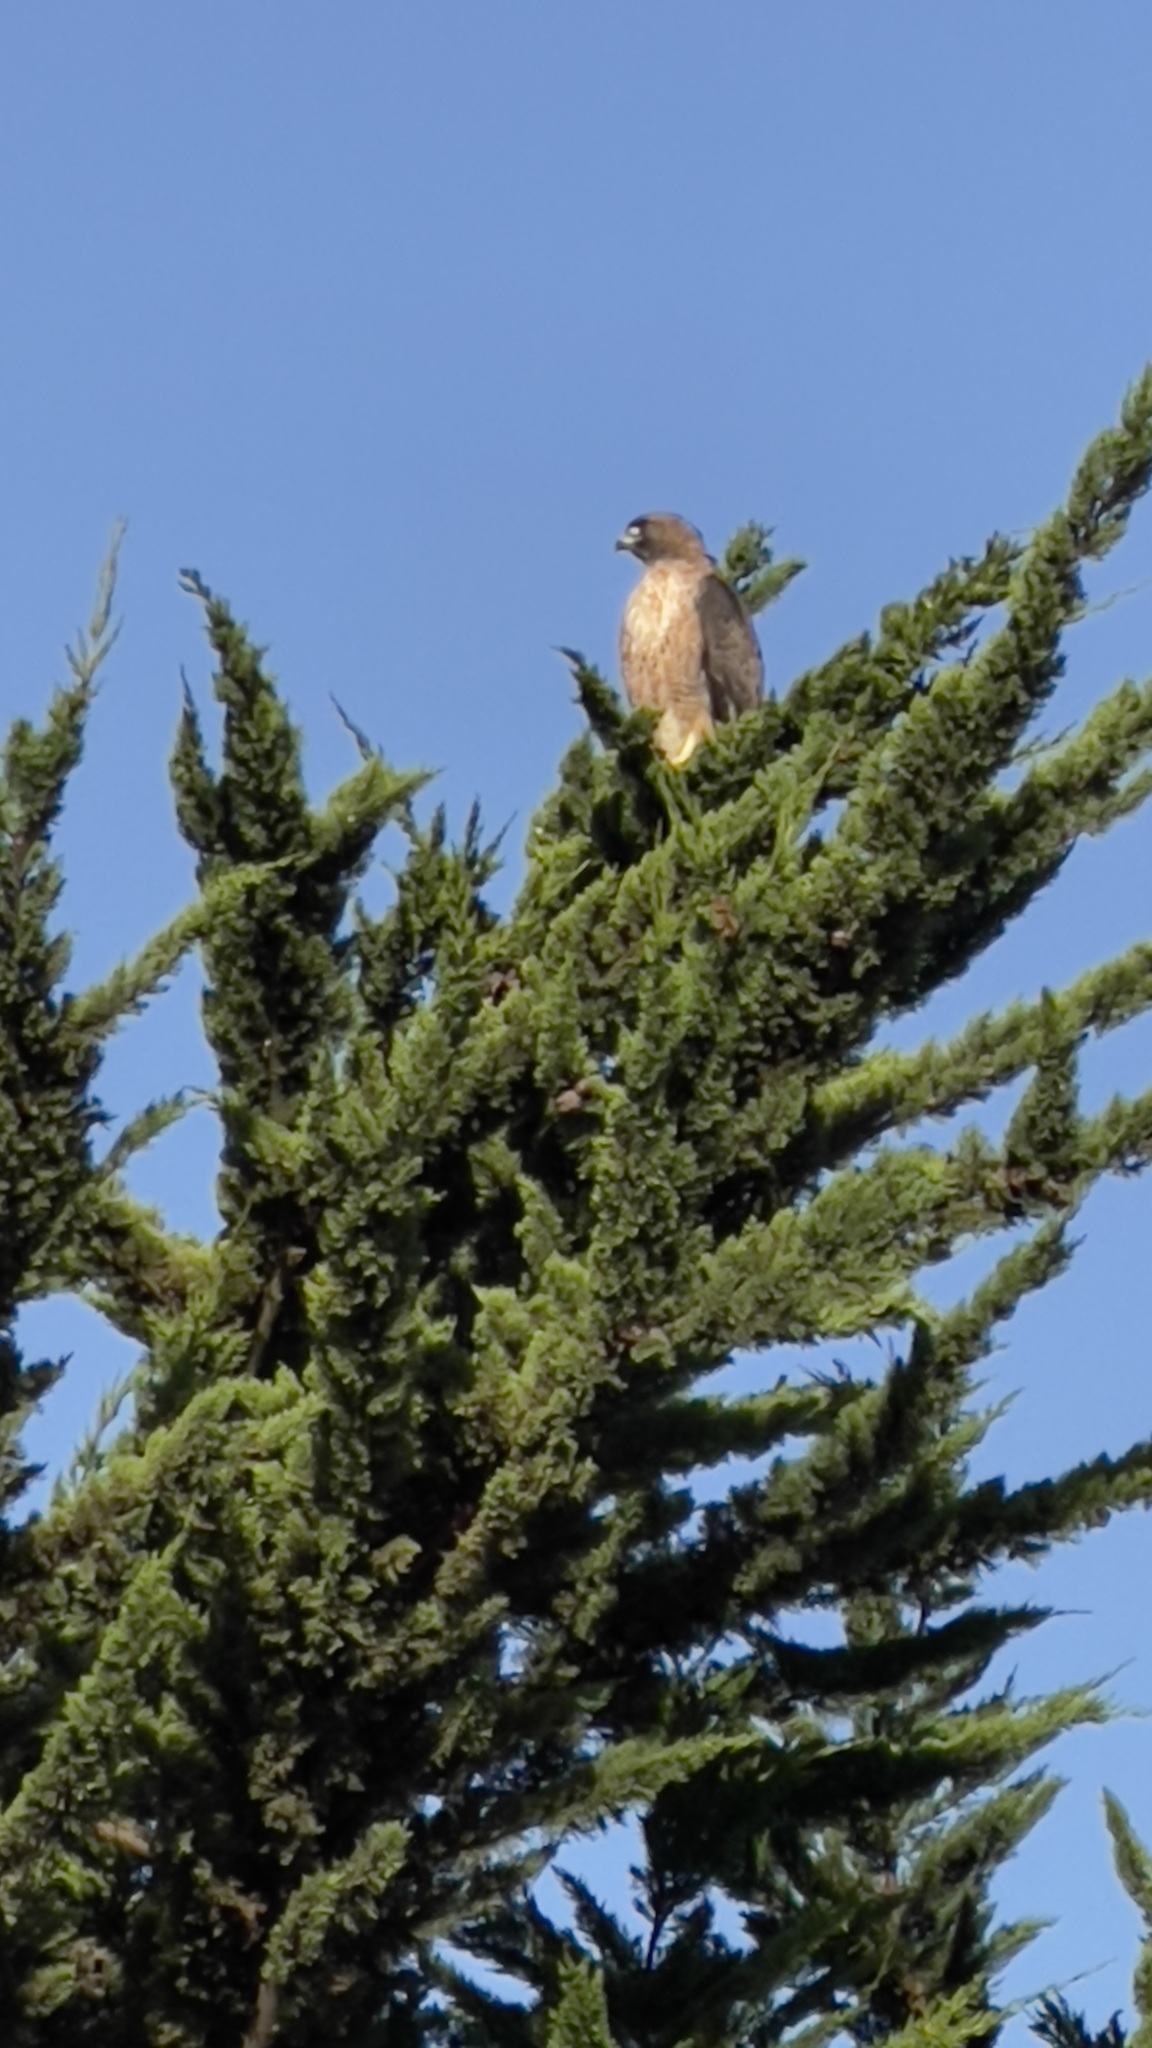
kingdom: Animalia
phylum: Chordata
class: Aves
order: Accipitriformes
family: Accipitridae
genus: Buteo
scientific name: Buteo lineatus
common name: Red-shouldered hawk
